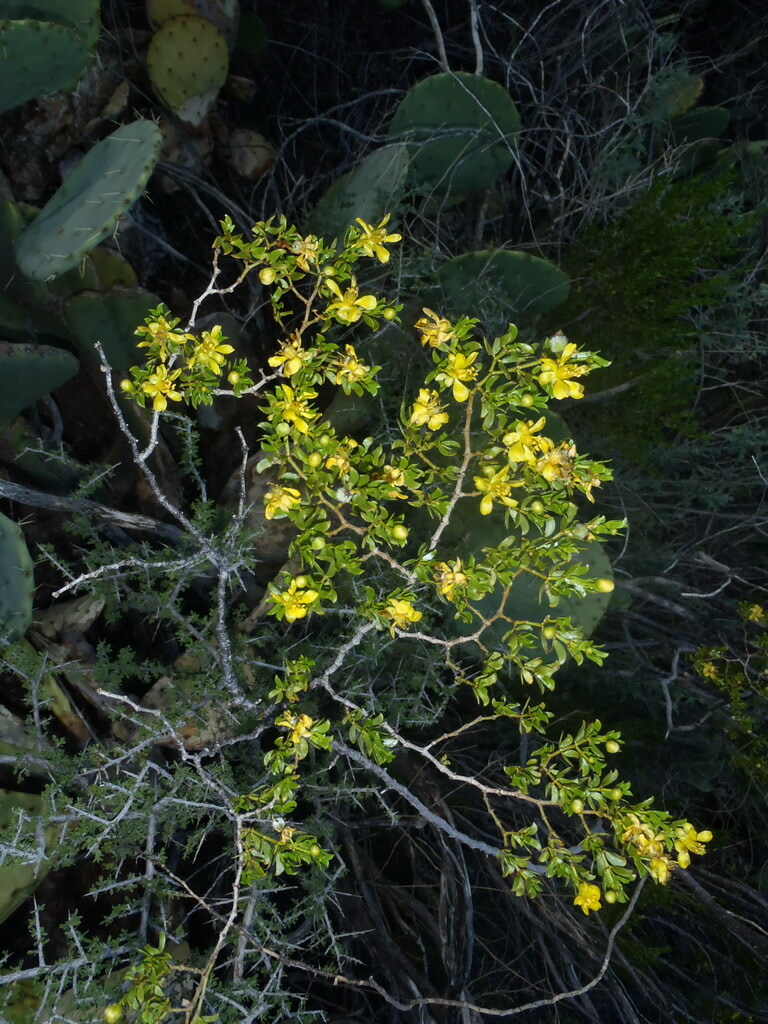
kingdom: Plantae
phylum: Tracheophyta
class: Magnoliopsida
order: Zygophyllales
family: Zygophyllaceae
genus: Larrea
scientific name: Larrea tridentata
